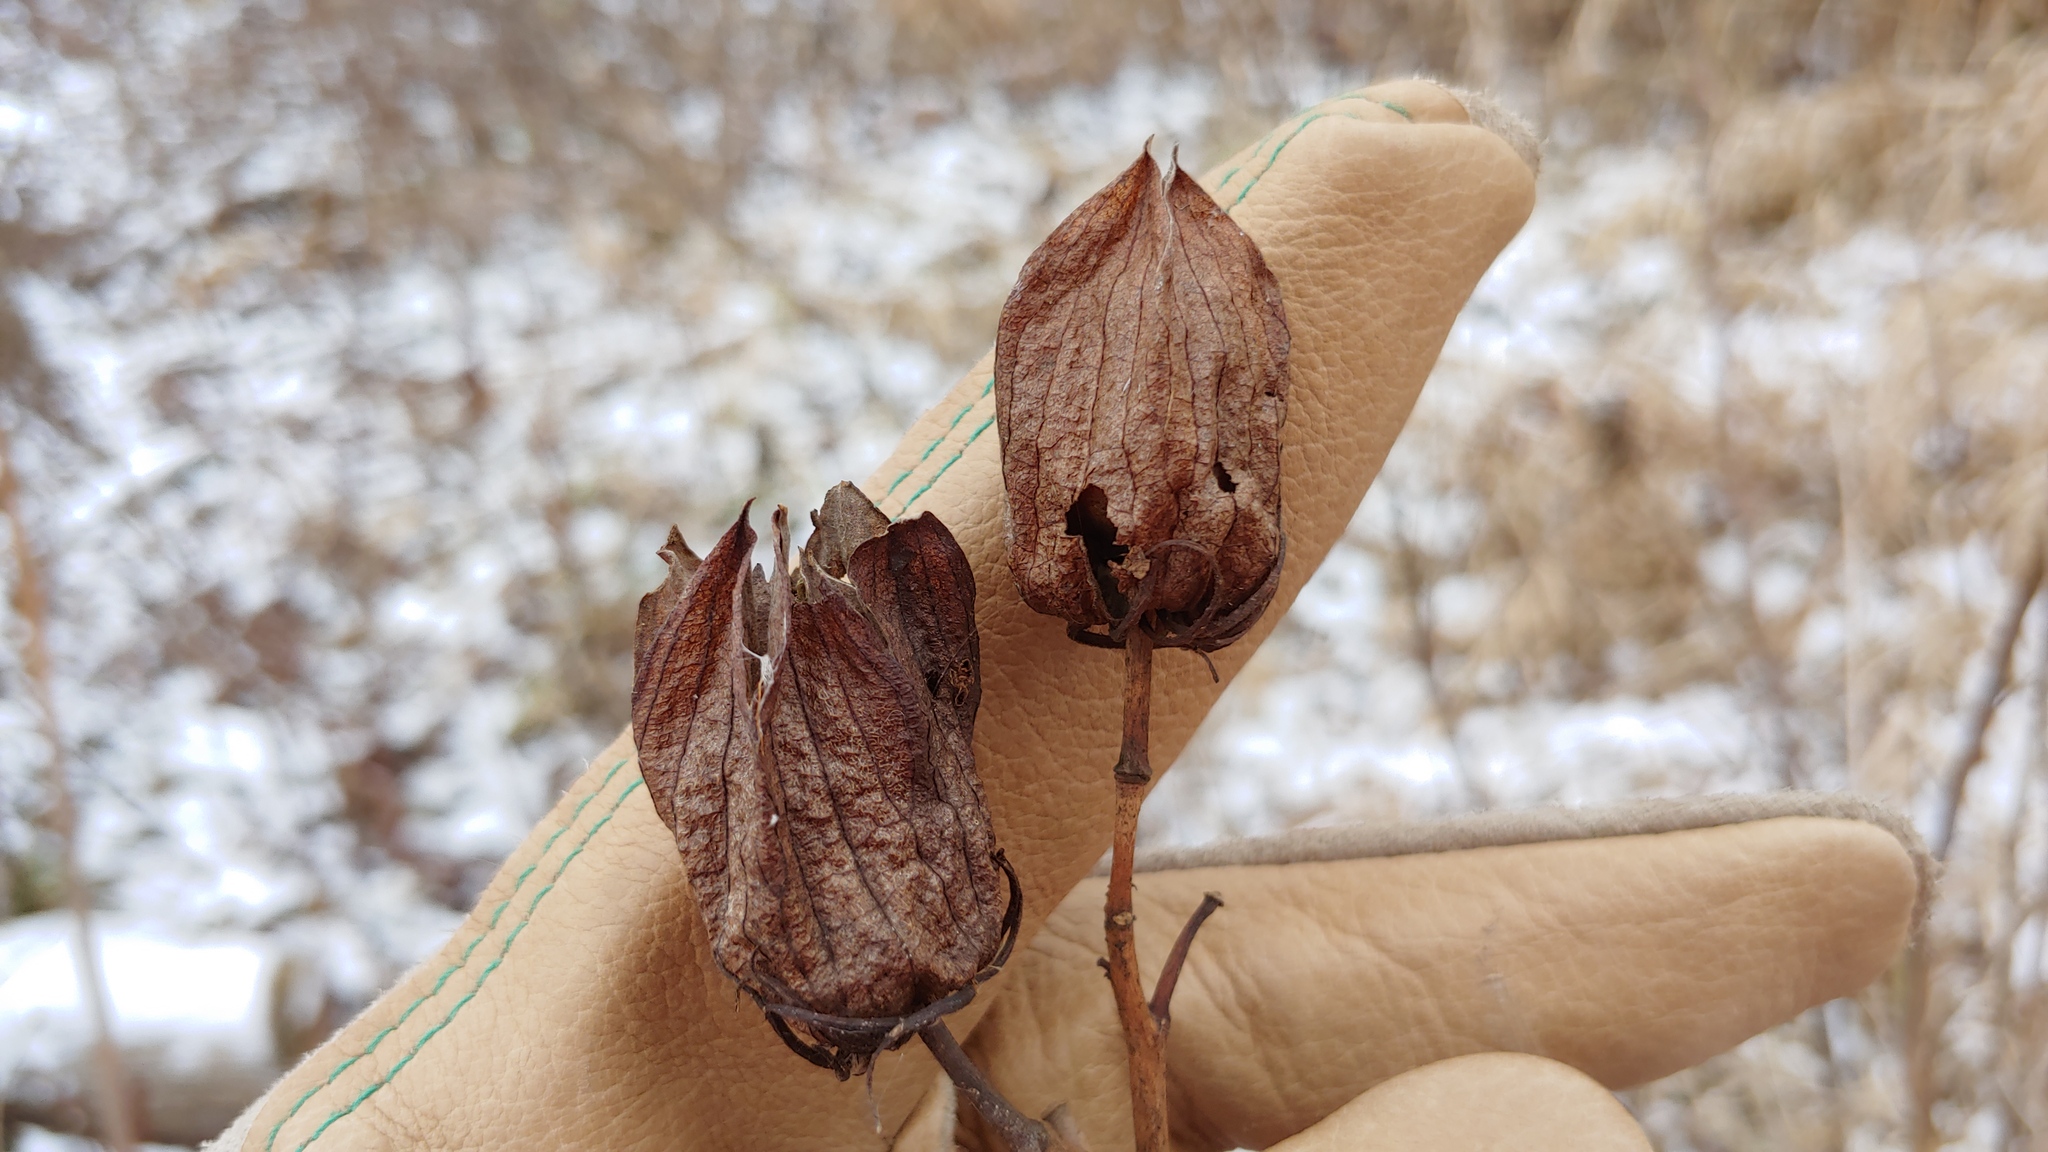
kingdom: Plantae
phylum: Tracheophyta
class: Magnoliopsida
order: Malvales
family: Malvaceae
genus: Hibiscus
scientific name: Hibiscus laevis
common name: Scarlet rose-mallow
